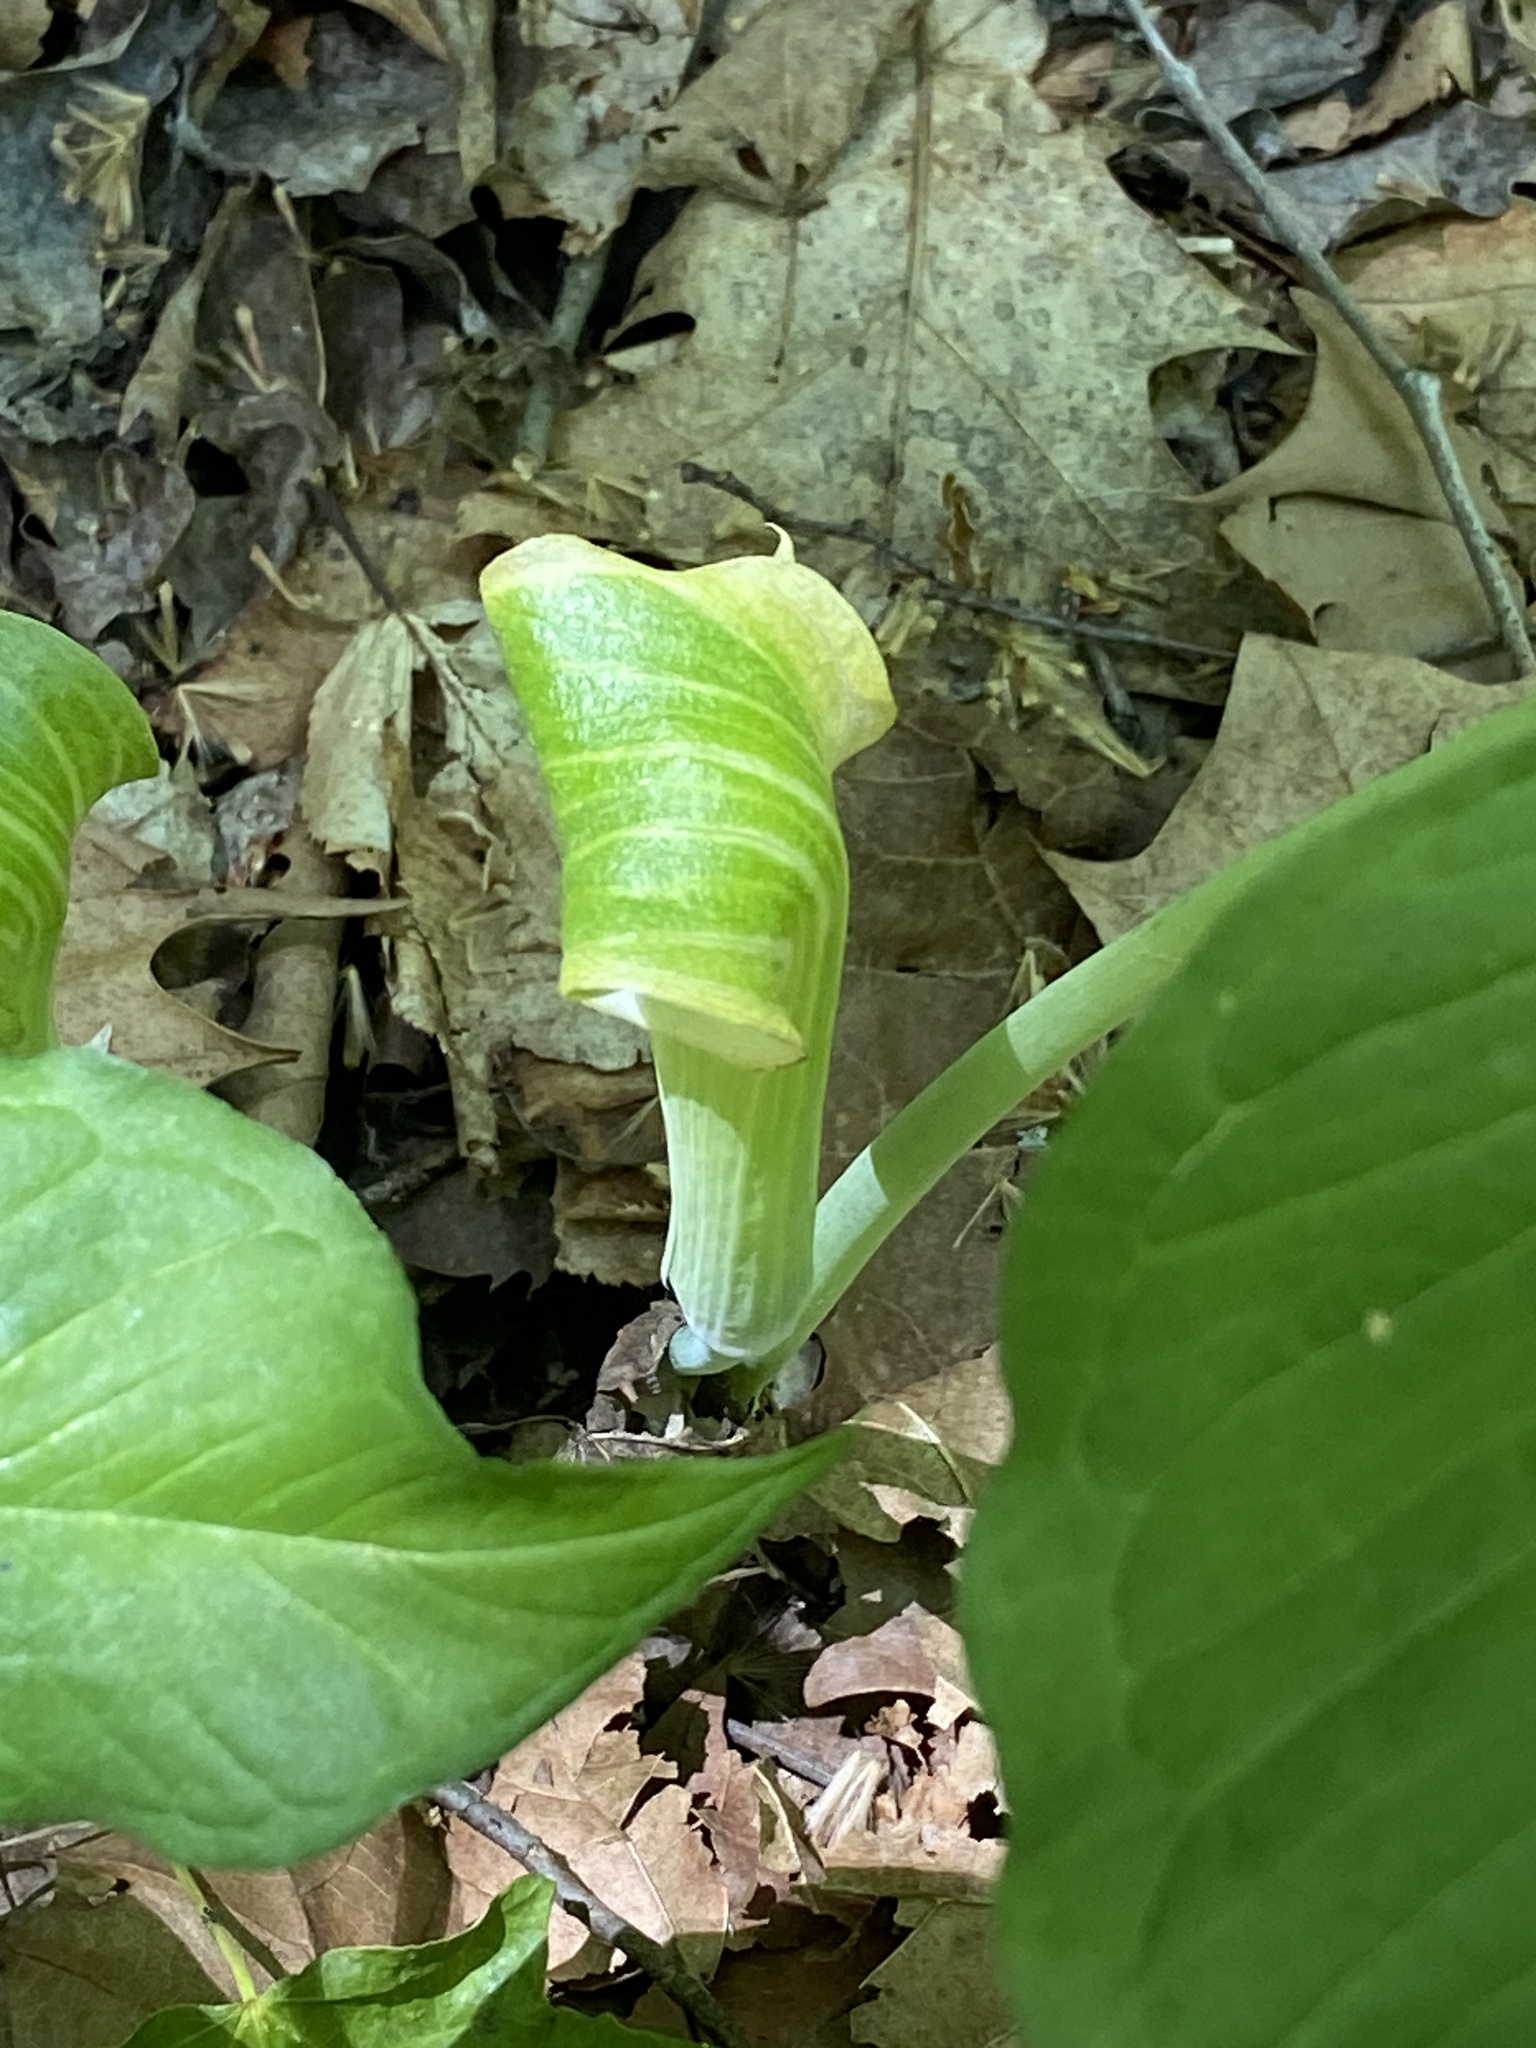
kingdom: Plantae
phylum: Tracheophyta
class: Liliopsida
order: Alismatales
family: Araceae
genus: Arisaema
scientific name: Arisaema triphyllum
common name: Jack-in-the-pulpit
